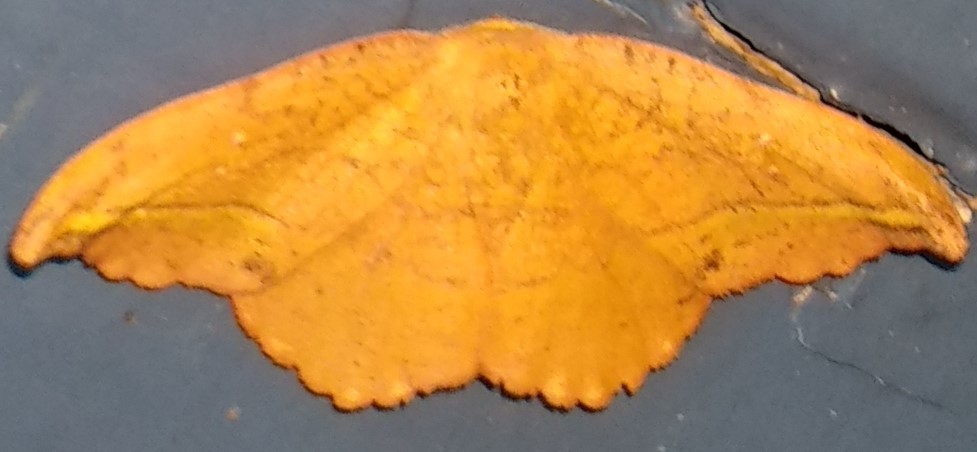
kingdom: Animalia
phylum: Arthropoda
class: Insecta
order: Lepidoptera
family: Drepanidae
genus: Oreta
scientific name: Oreta rosea
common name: Rose hooktip
